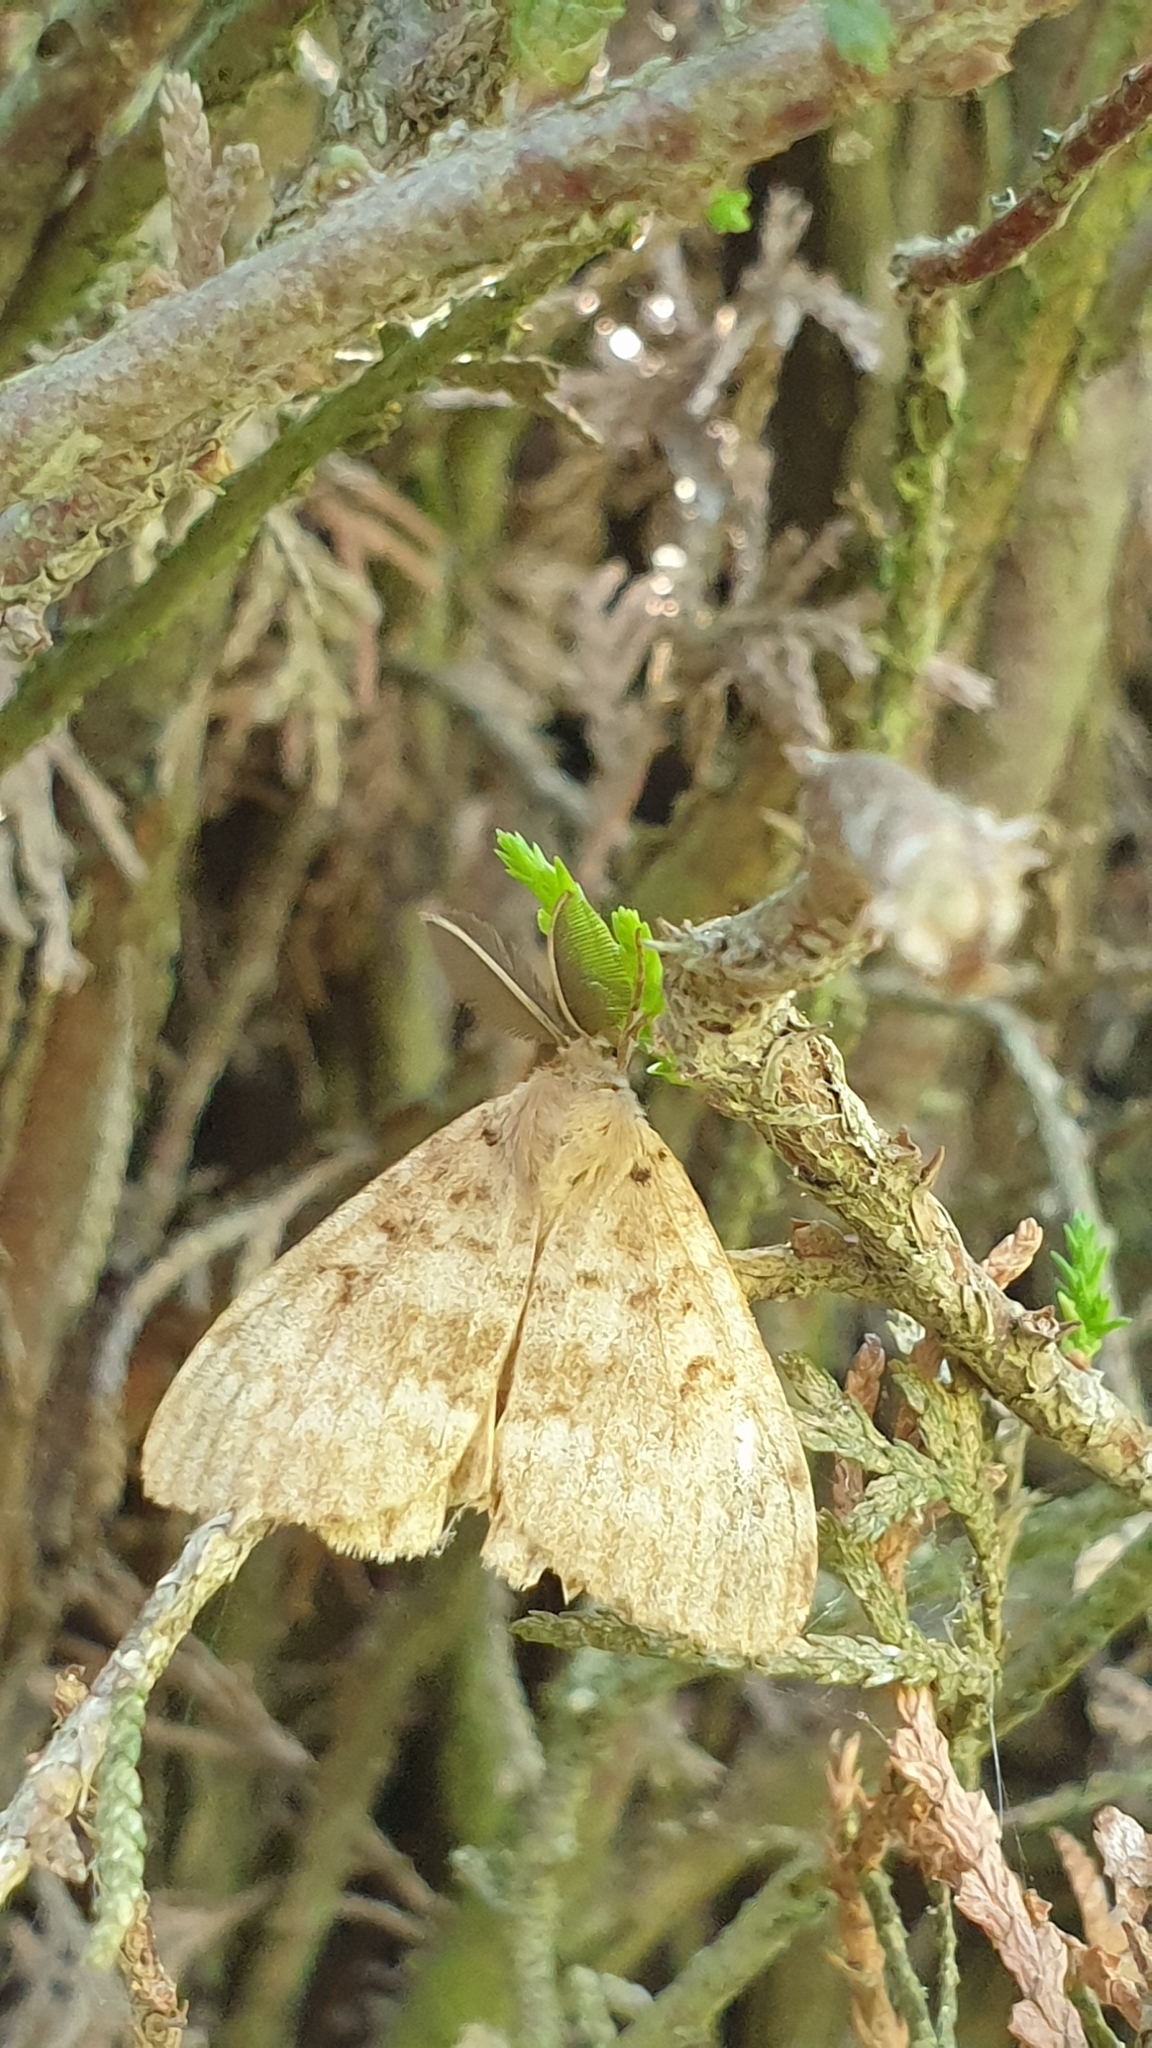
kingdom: Animalia
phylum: Arthropoda
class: Insecta
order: Lepidoptera
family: Erebidae
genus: Lymantria
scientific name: Lymantria dispar
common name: Gypsy moth
